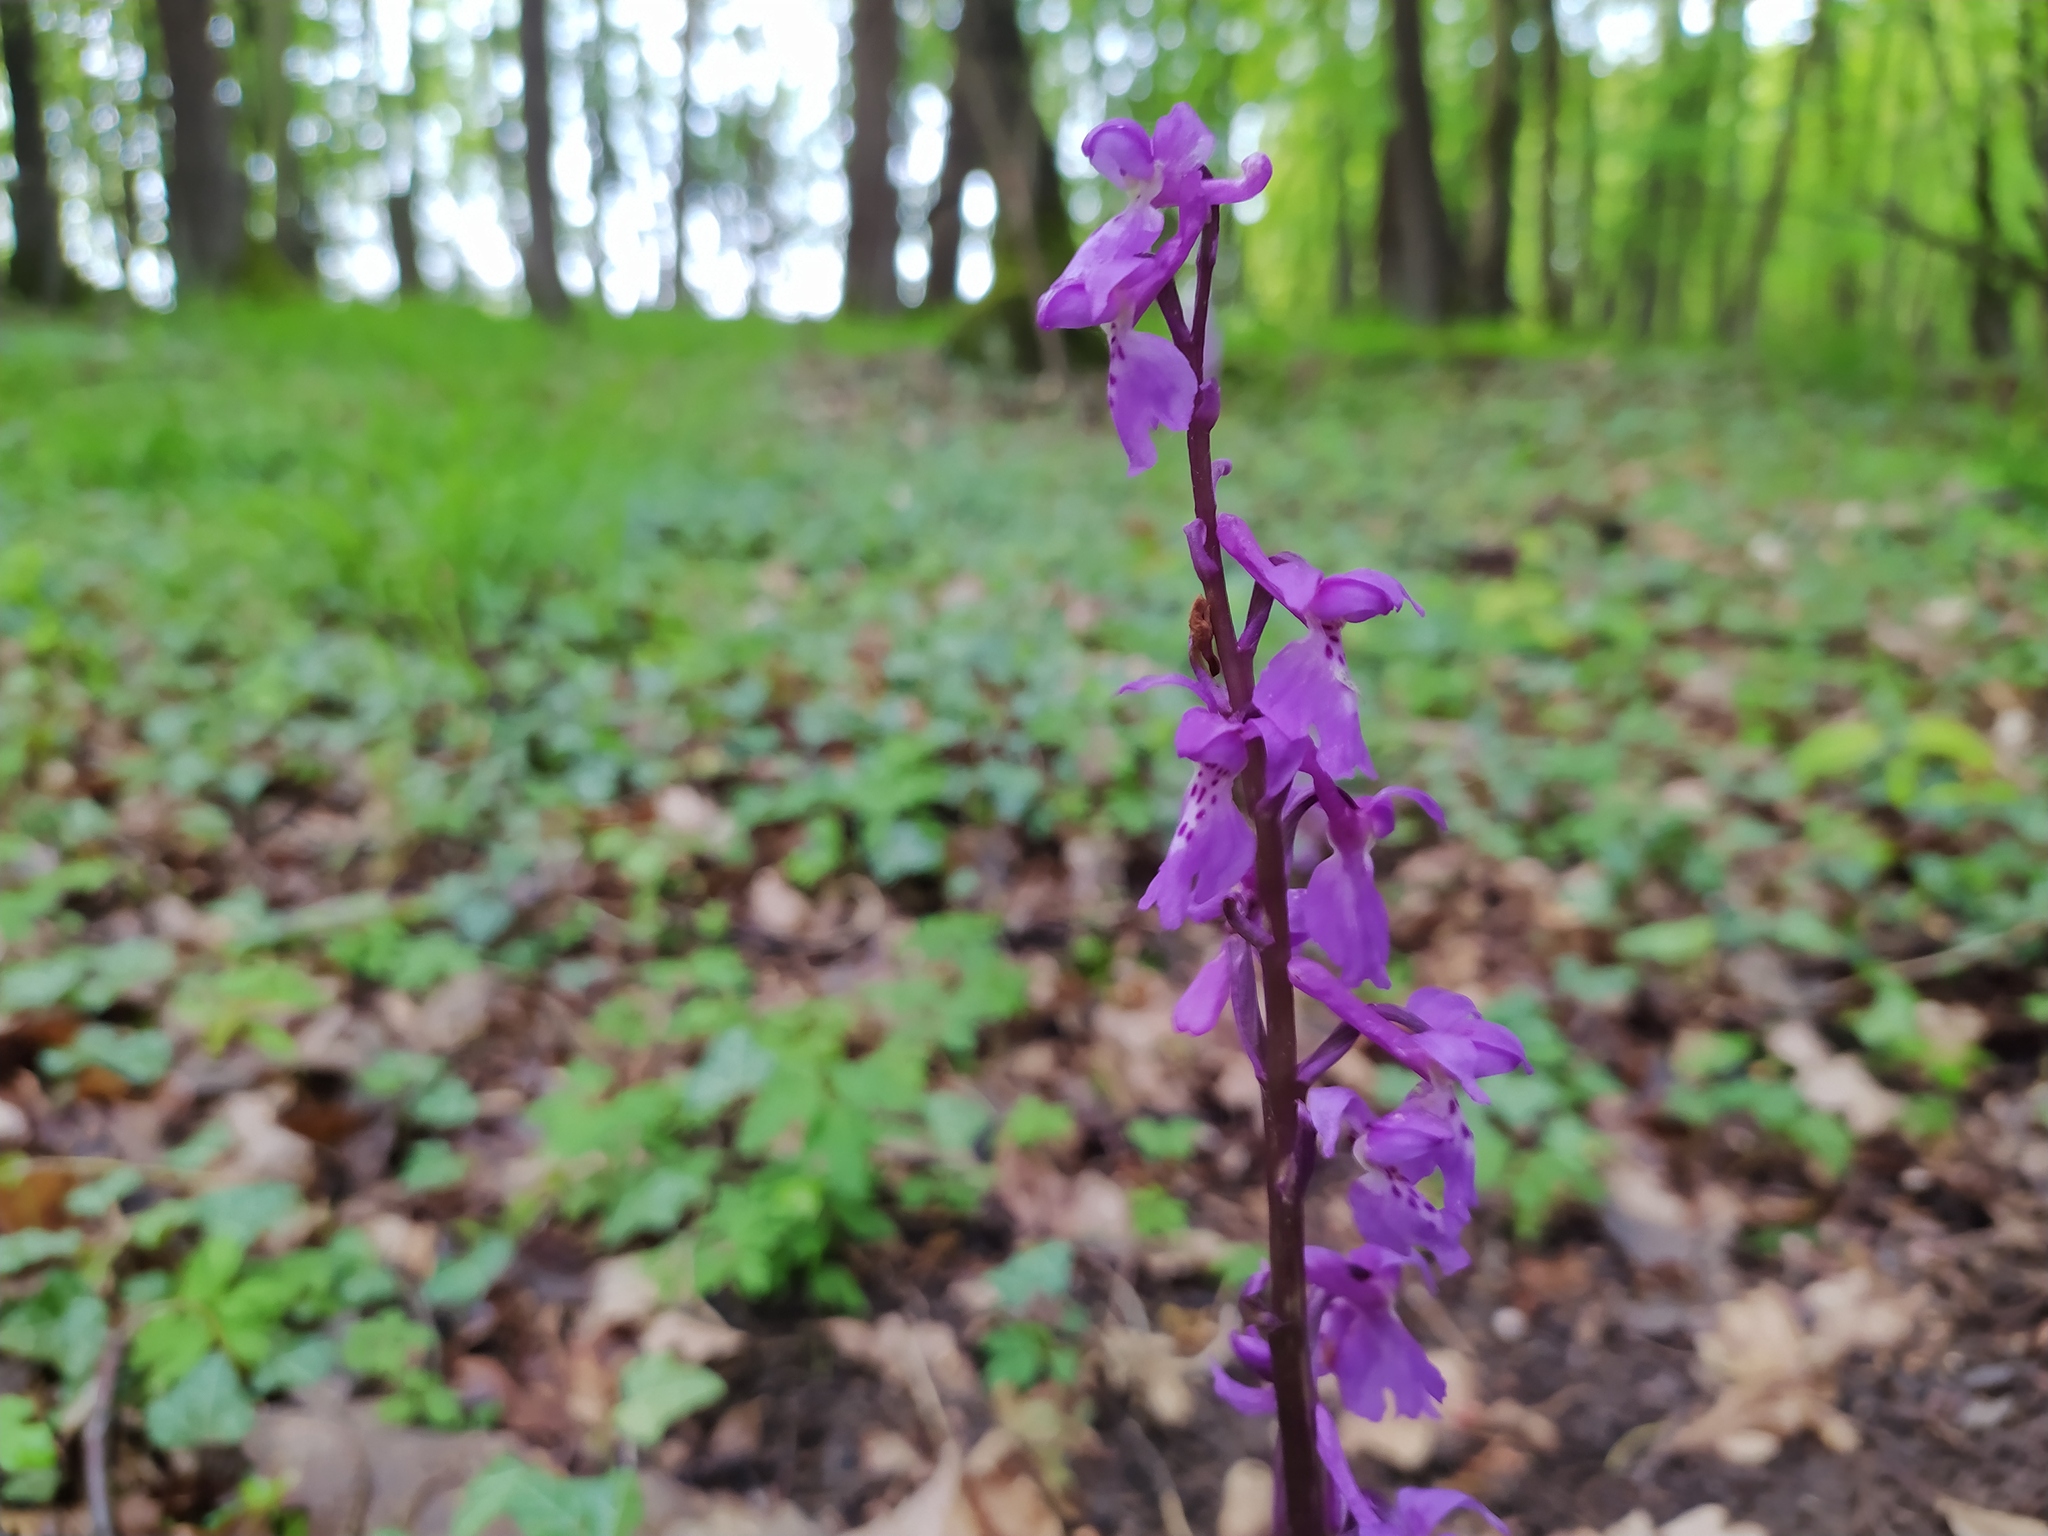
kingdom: Plantae
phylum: Tracheophyta
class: Liliopsida
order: Asparagales
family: Orchidaceae
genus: Orchis
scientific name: Orchis mascula
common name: Early-purple orchid
